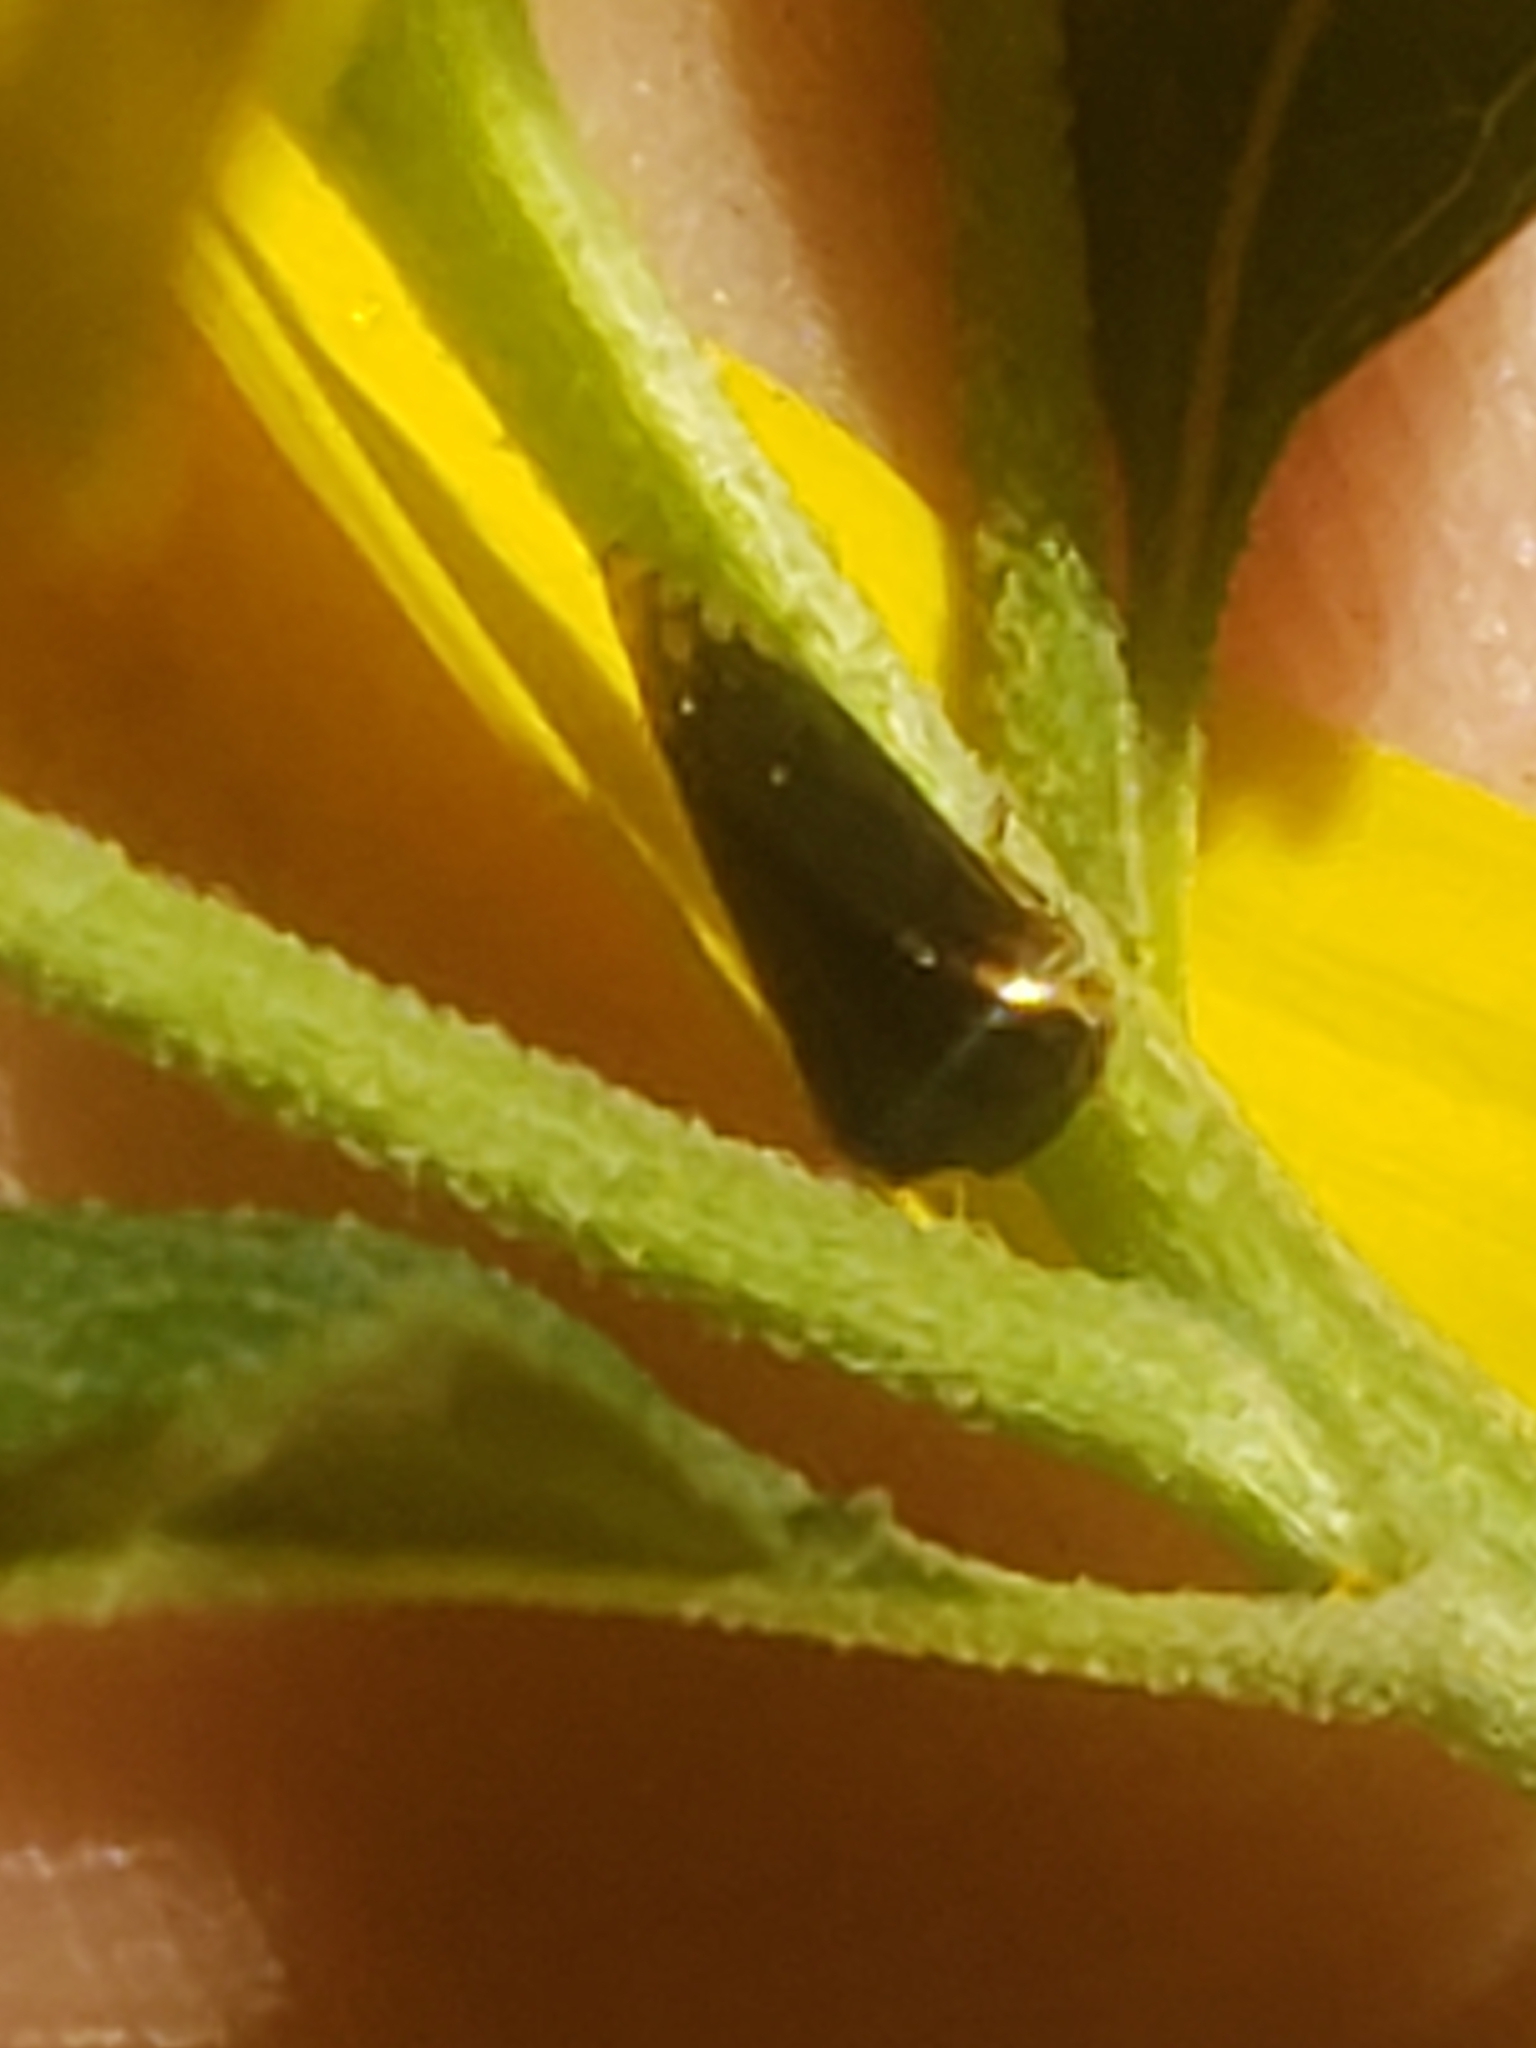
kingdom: Animalia
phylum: Arthropoda
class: Insecta
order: Hemiptera
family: Membracidae
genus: Acutalis
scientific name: Acutalis tartarea
